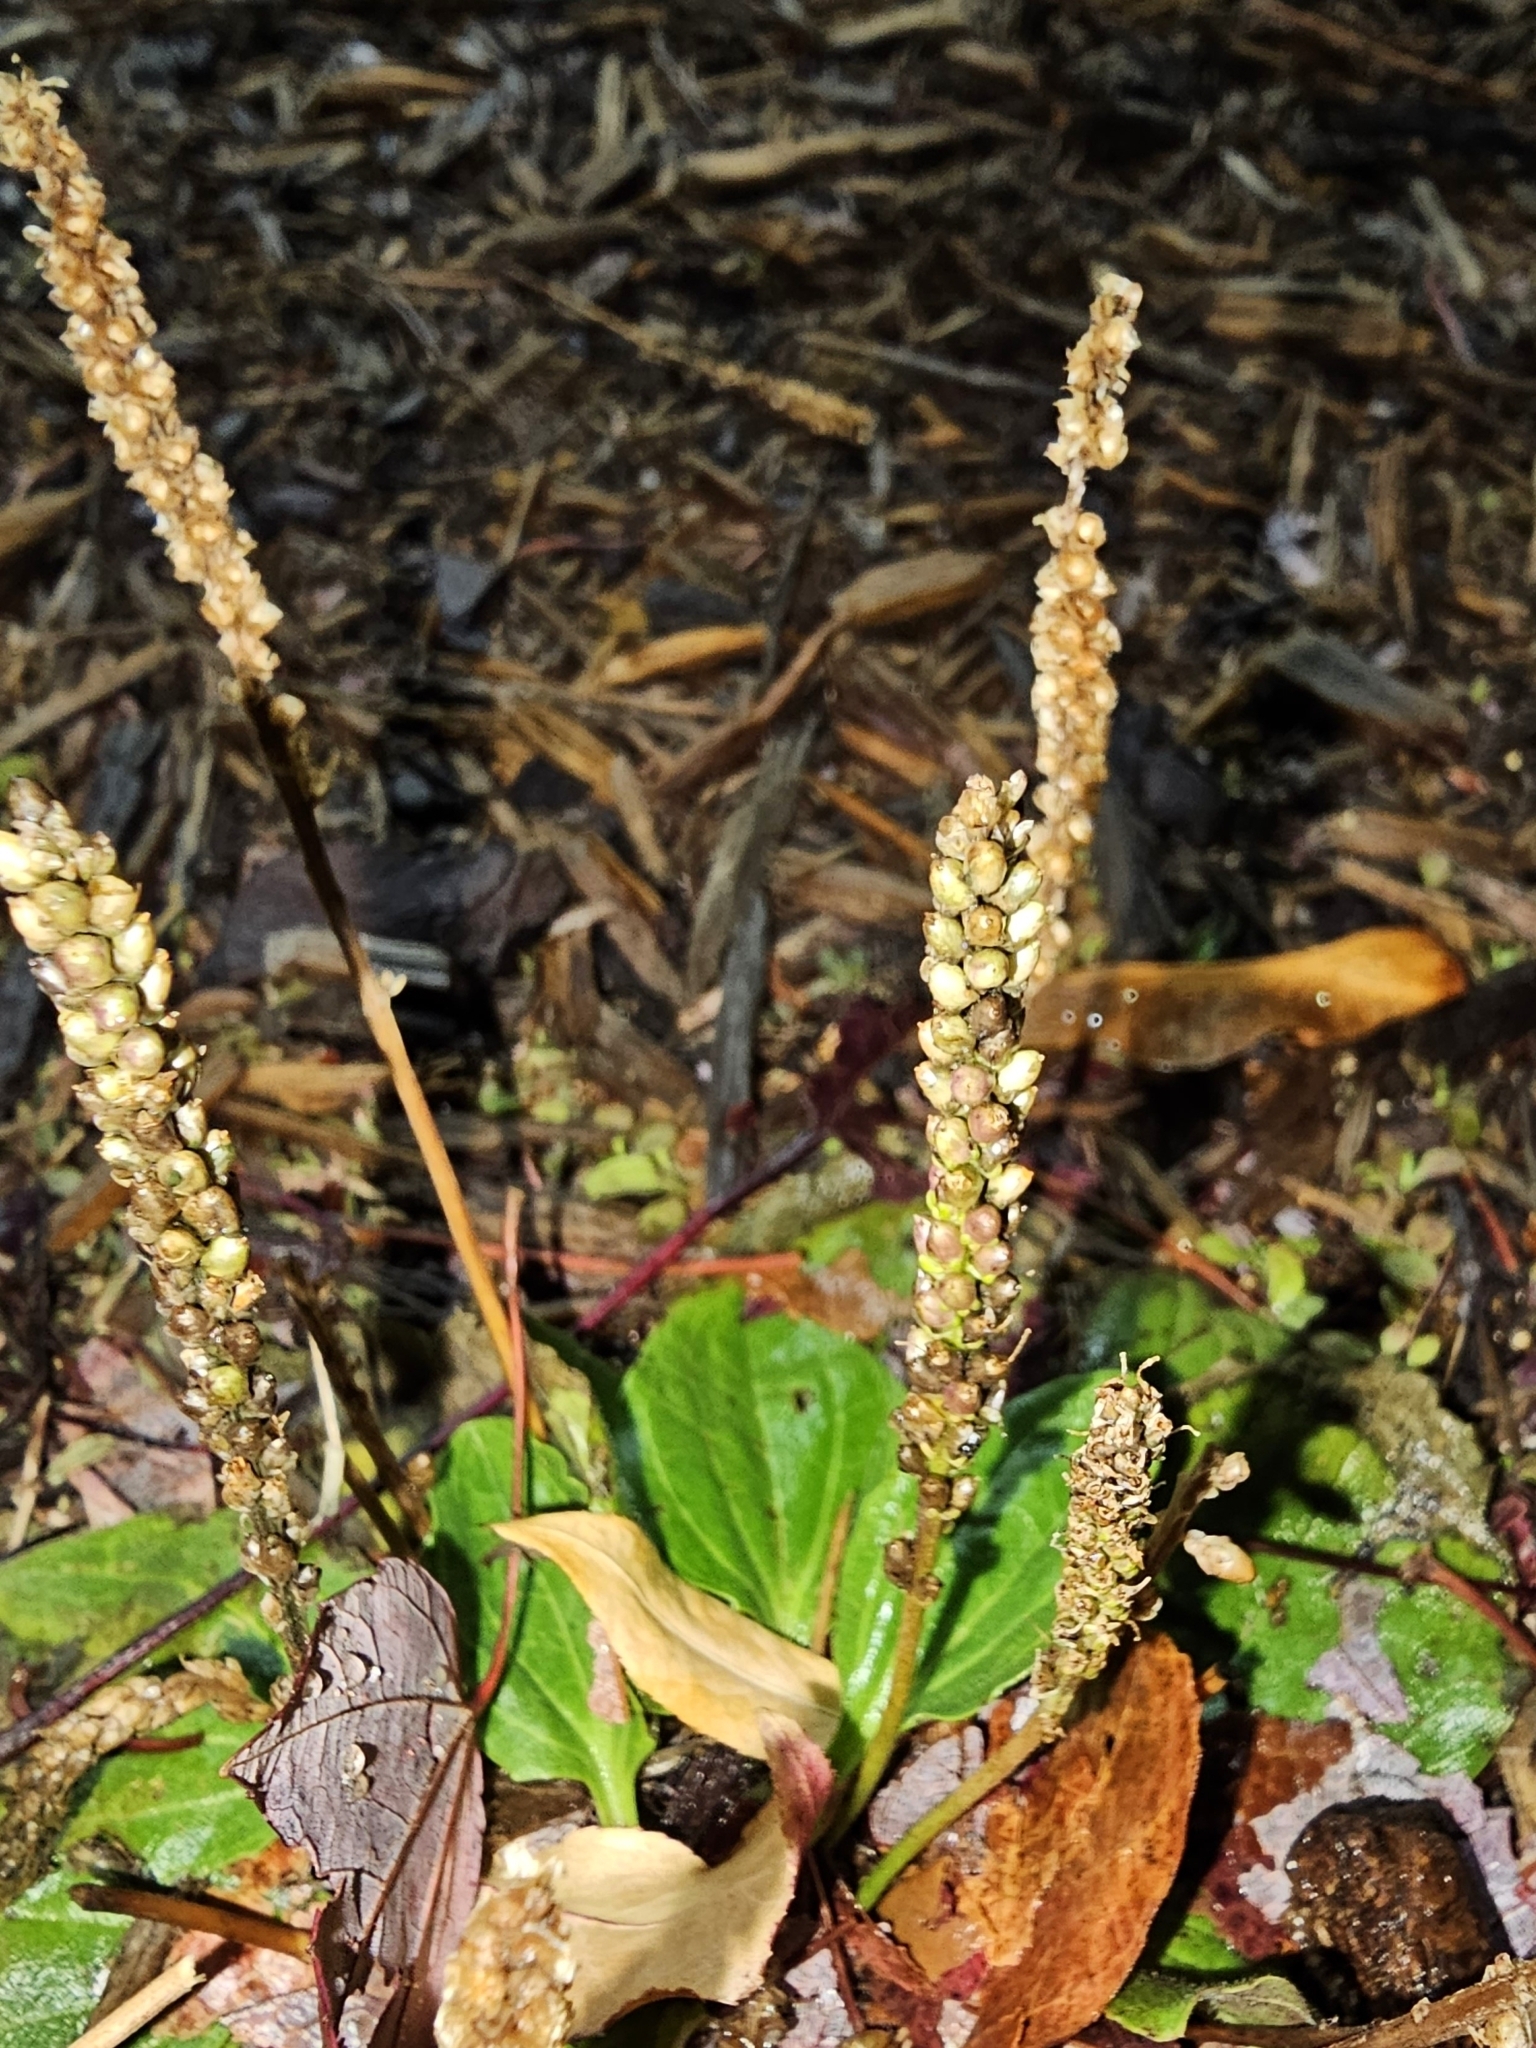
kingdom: Plantae
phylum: Tracheophyta
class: Magnoliopsida
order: Lamiales
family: Plantaginaceae
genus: Plantago
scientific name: Plantago major
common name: Common plantain
